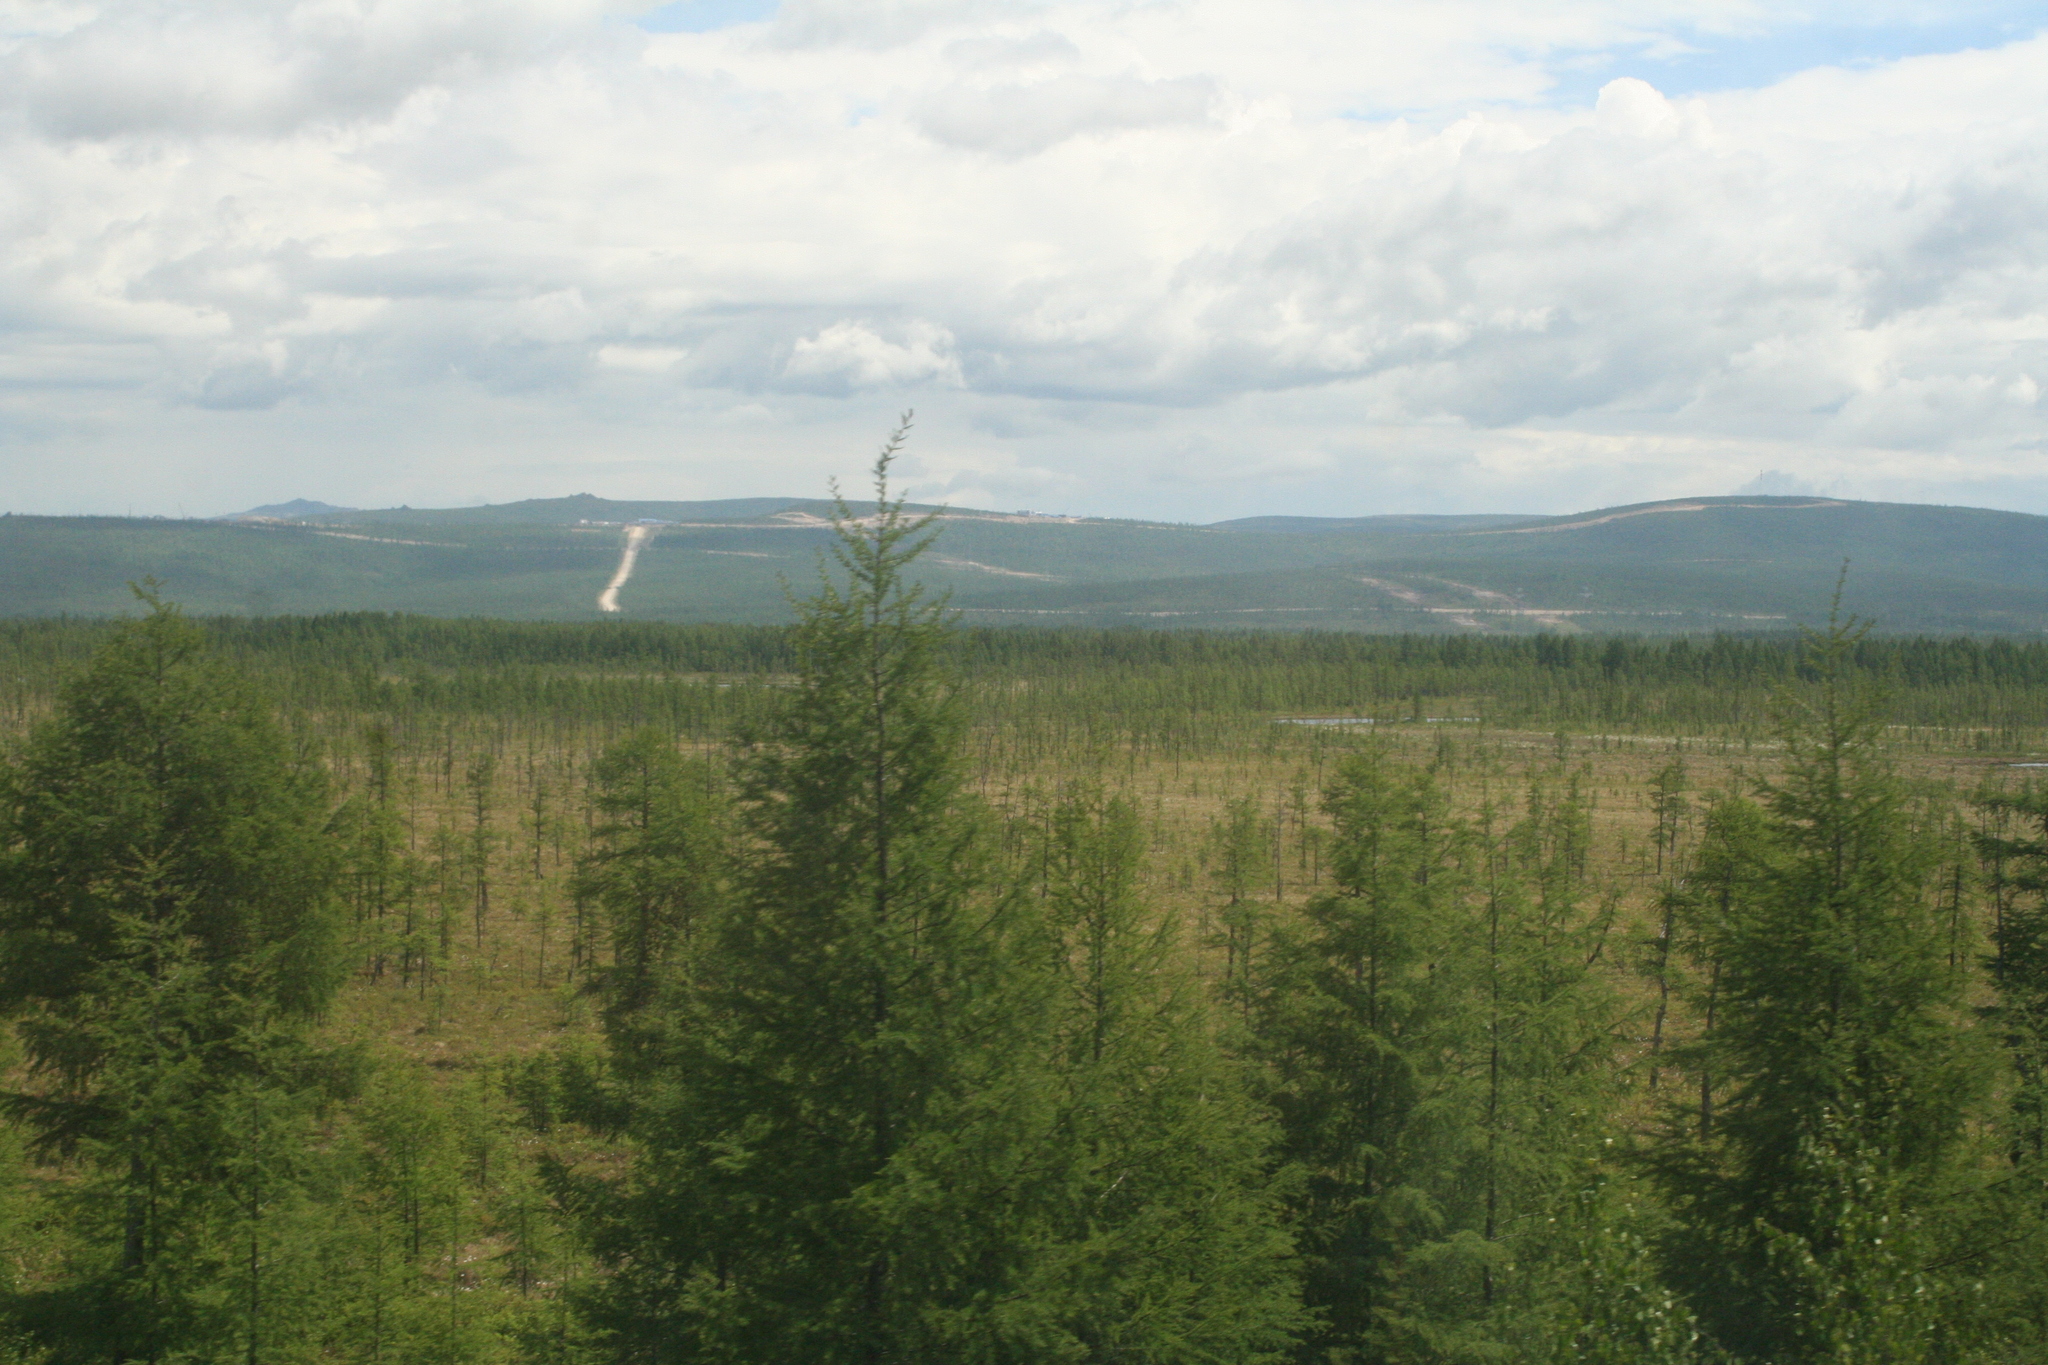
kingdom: Plantae
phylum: Tracheophyta
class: Pinopsida
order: Pinales
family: Pinaceae
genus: Larix
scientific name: Larix gmelinii
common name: Dahurian larch
